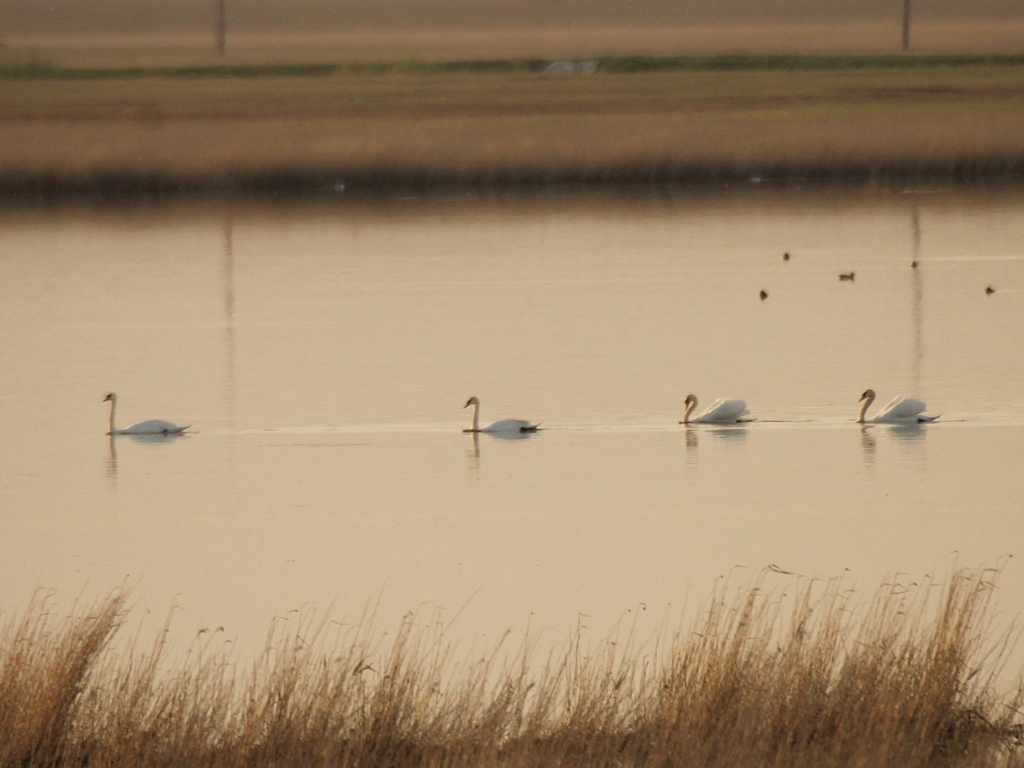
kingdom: Animalia
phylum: Chordata
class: Aves
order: Anseriformes
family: Anatidae
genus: Cygnus
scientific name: Cygnus olor
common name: Mute swan
